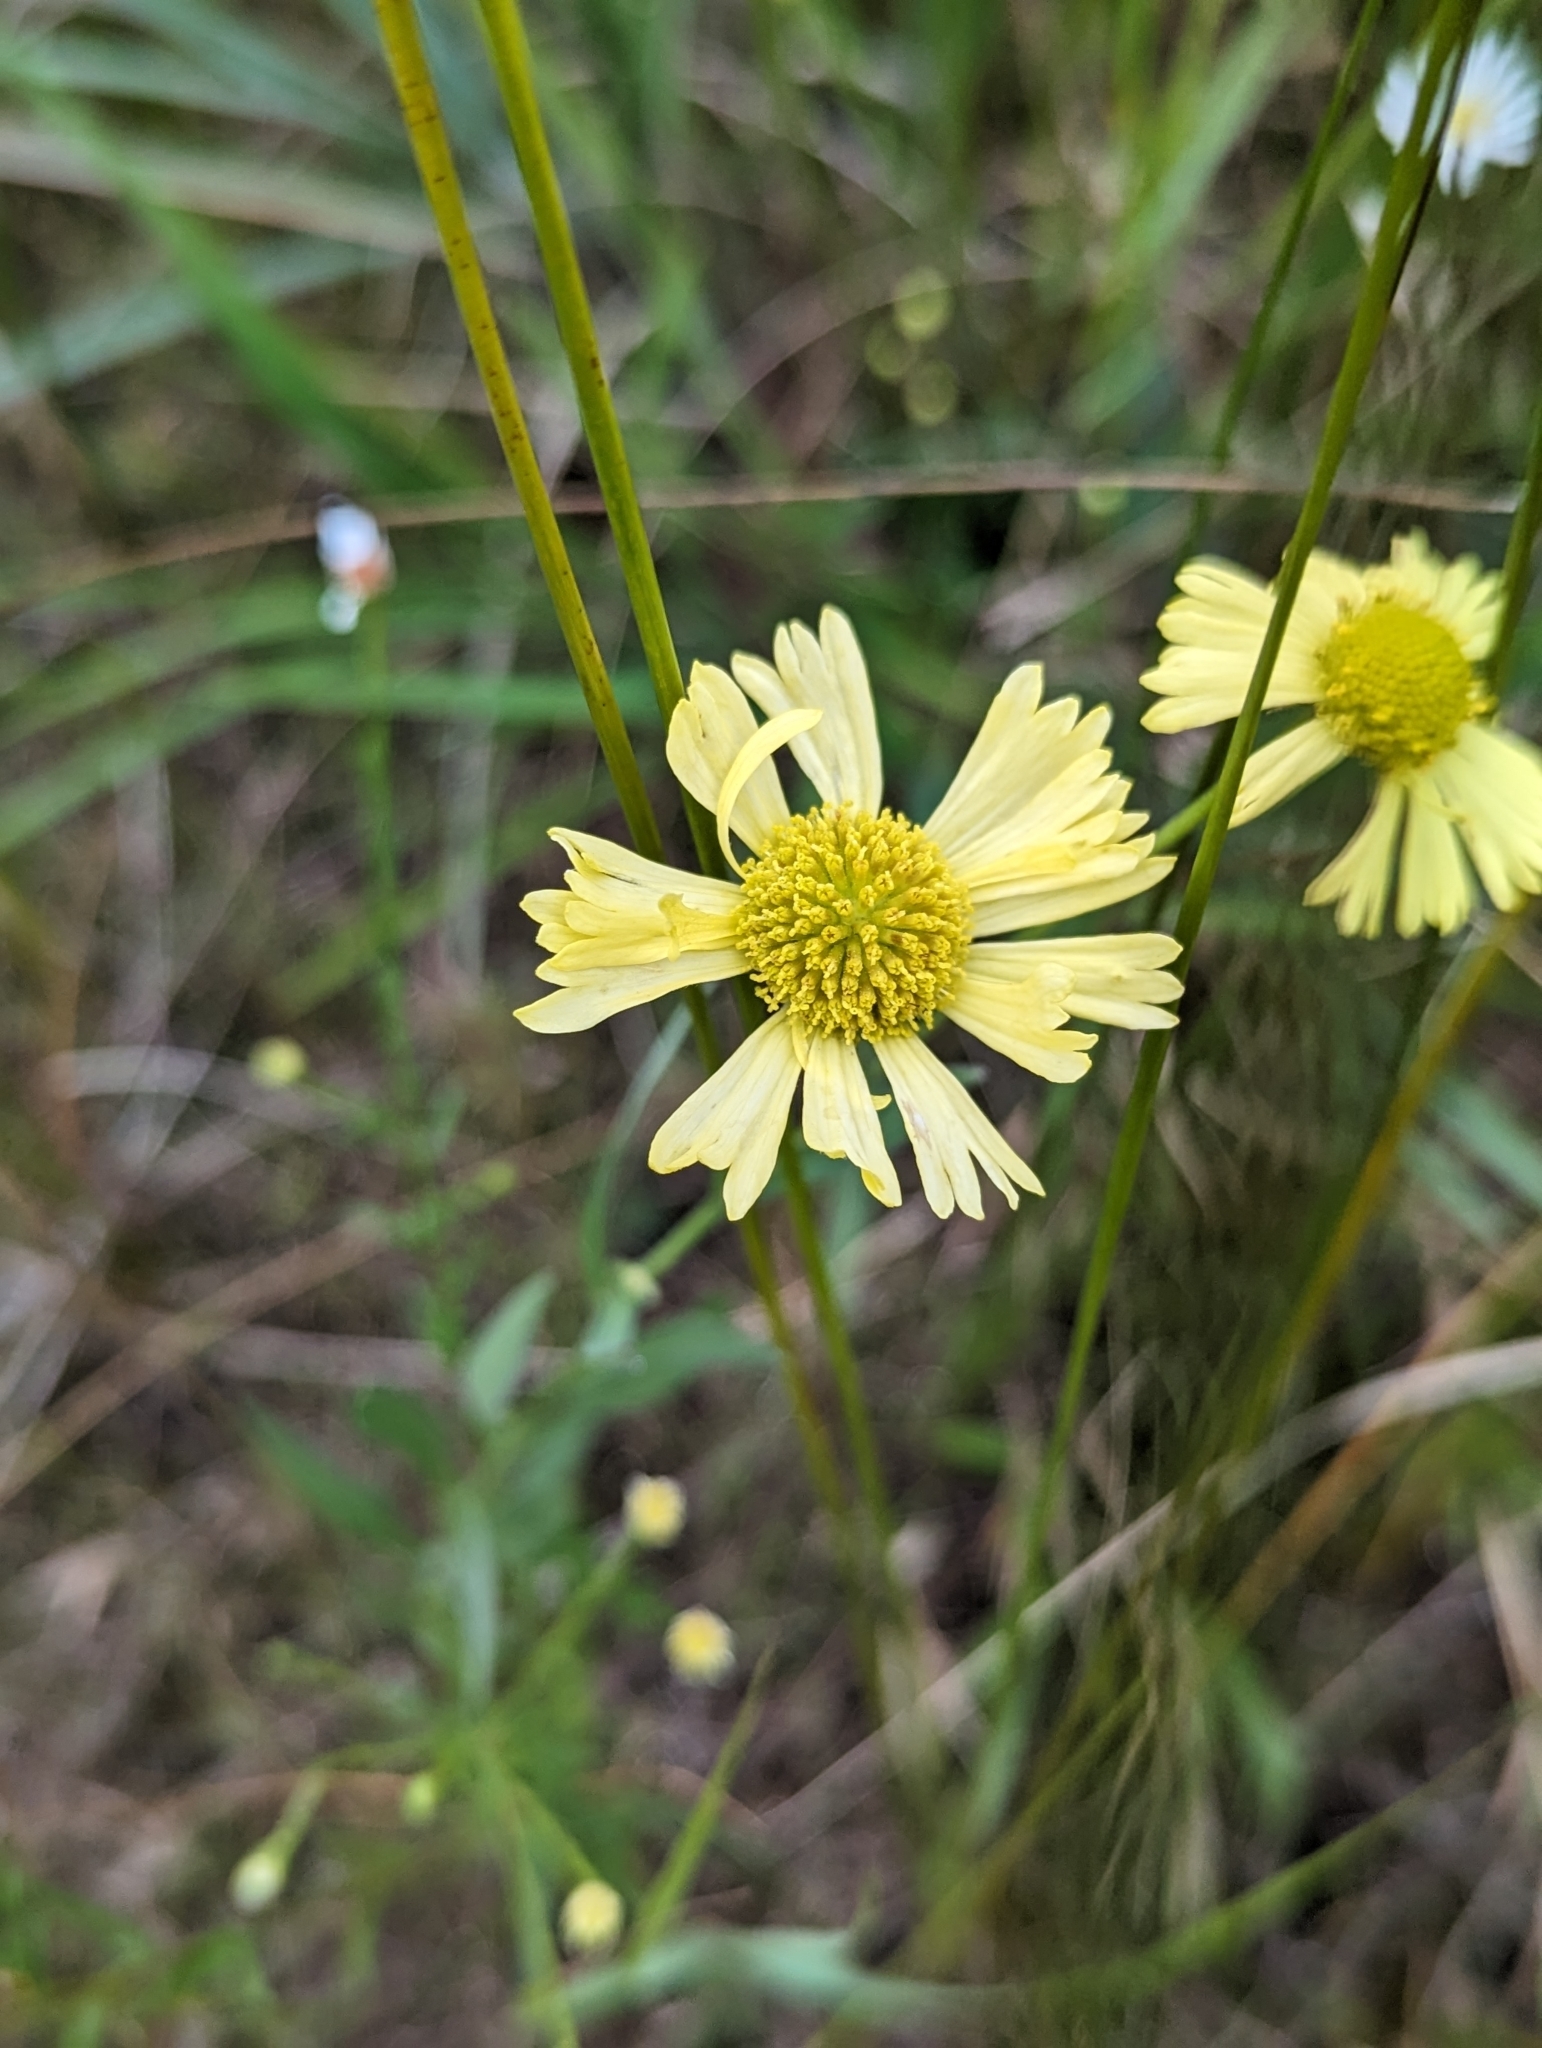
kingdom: Plantae
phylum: Tracheophyta
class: Magnoliopsida
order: Asterales
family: Asteraceae
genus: Helenium
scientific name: Helenium autumnale
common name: Sneezeweed
